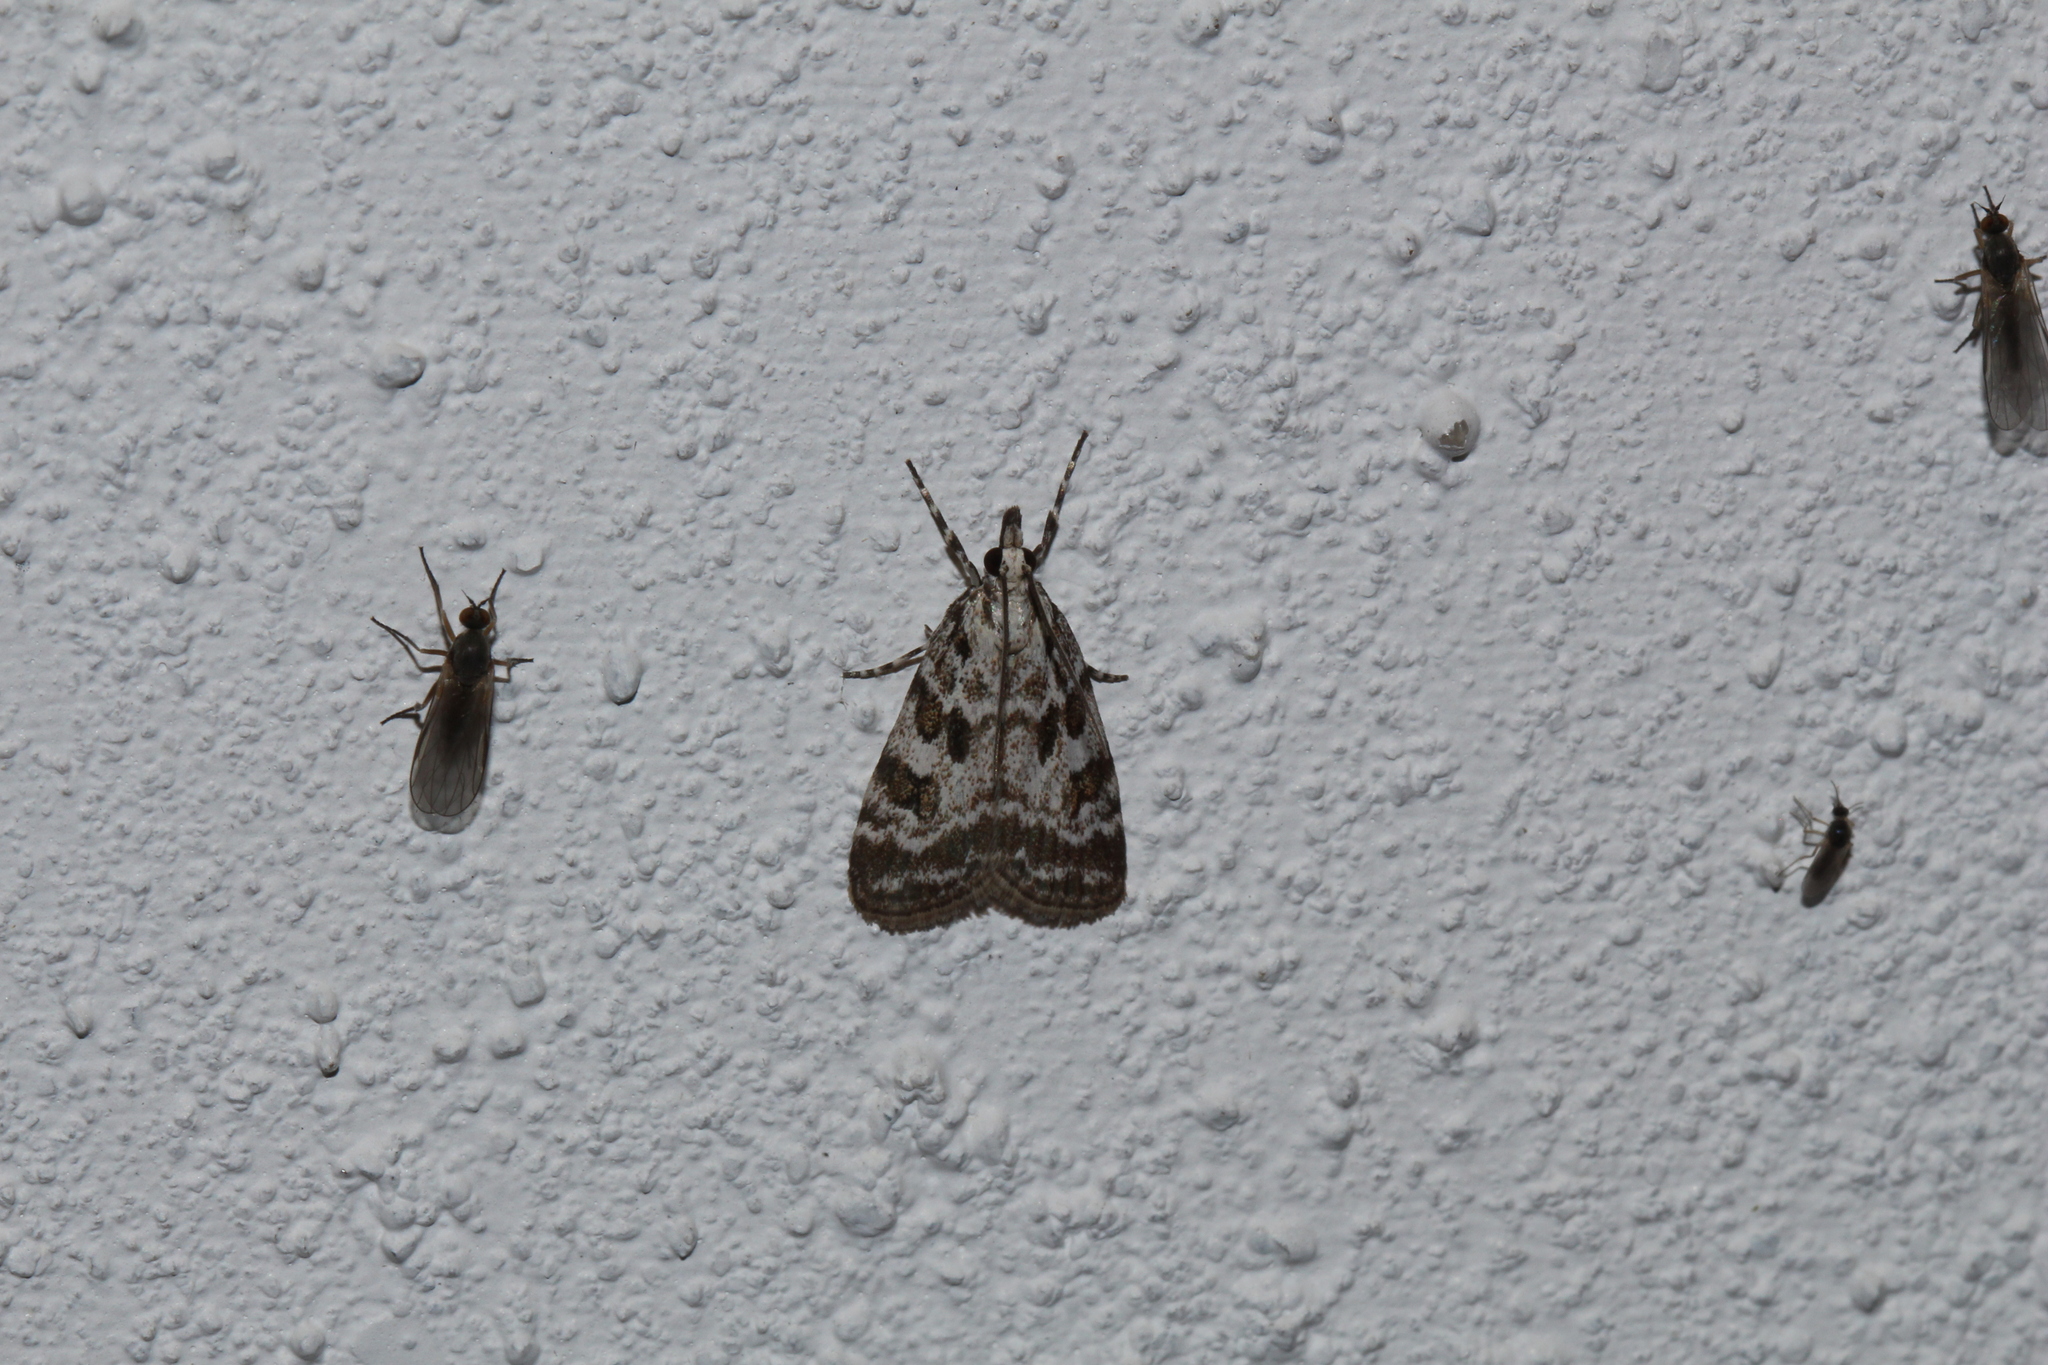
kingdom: Animalia
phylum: Arthropoda
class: Insecta
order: Lepidoptera
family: Crambidae
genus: Scoparia
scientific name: Scoparia pyralella
